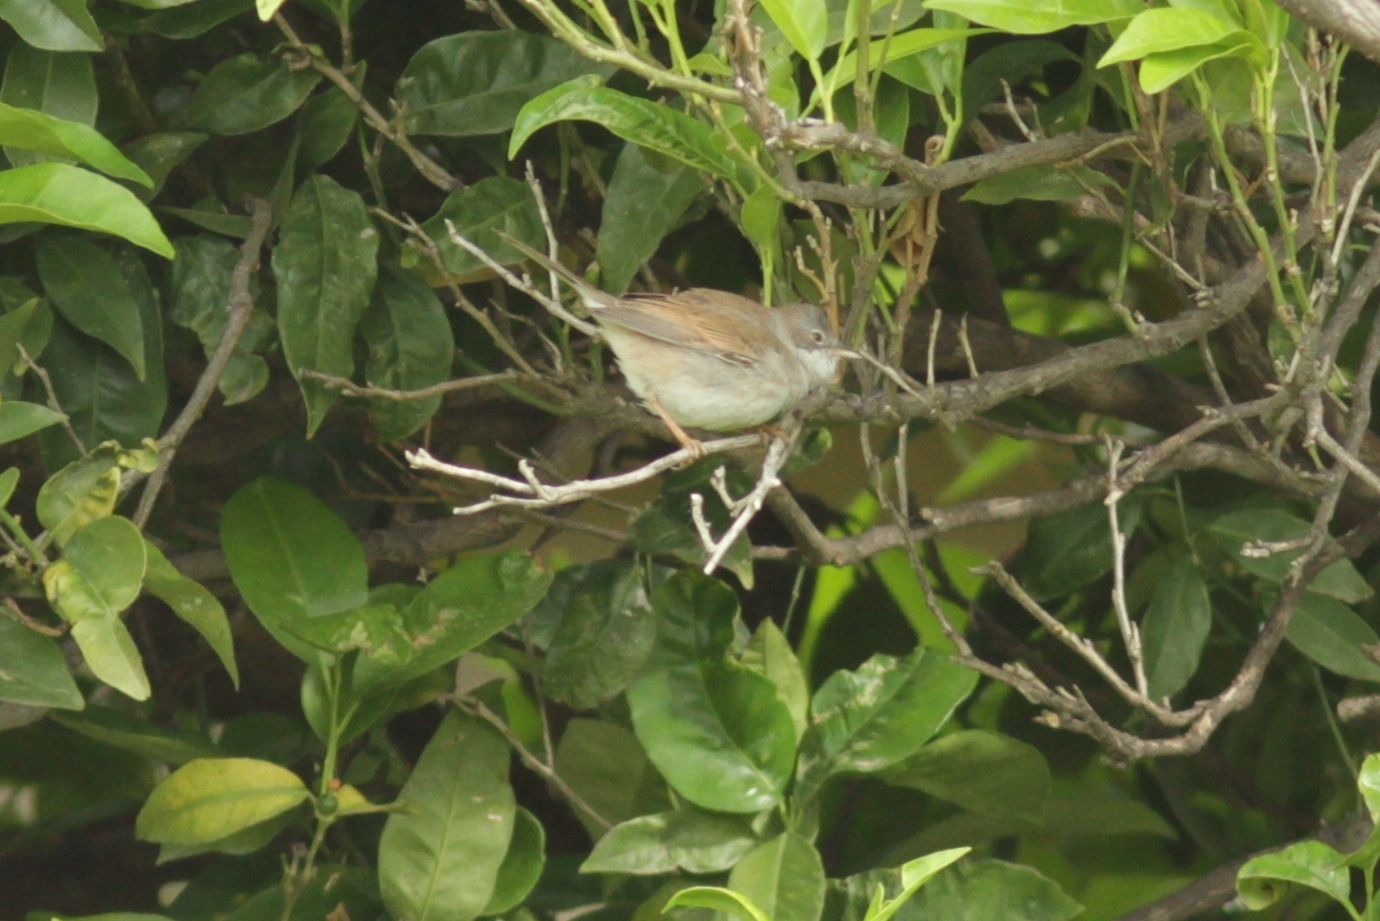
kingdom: Animalia
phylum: Chordata
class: Aves
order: Passeriformes
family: Sylviidae
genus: Sylvia
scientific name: Sylvia communis
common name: Common whitethroat
